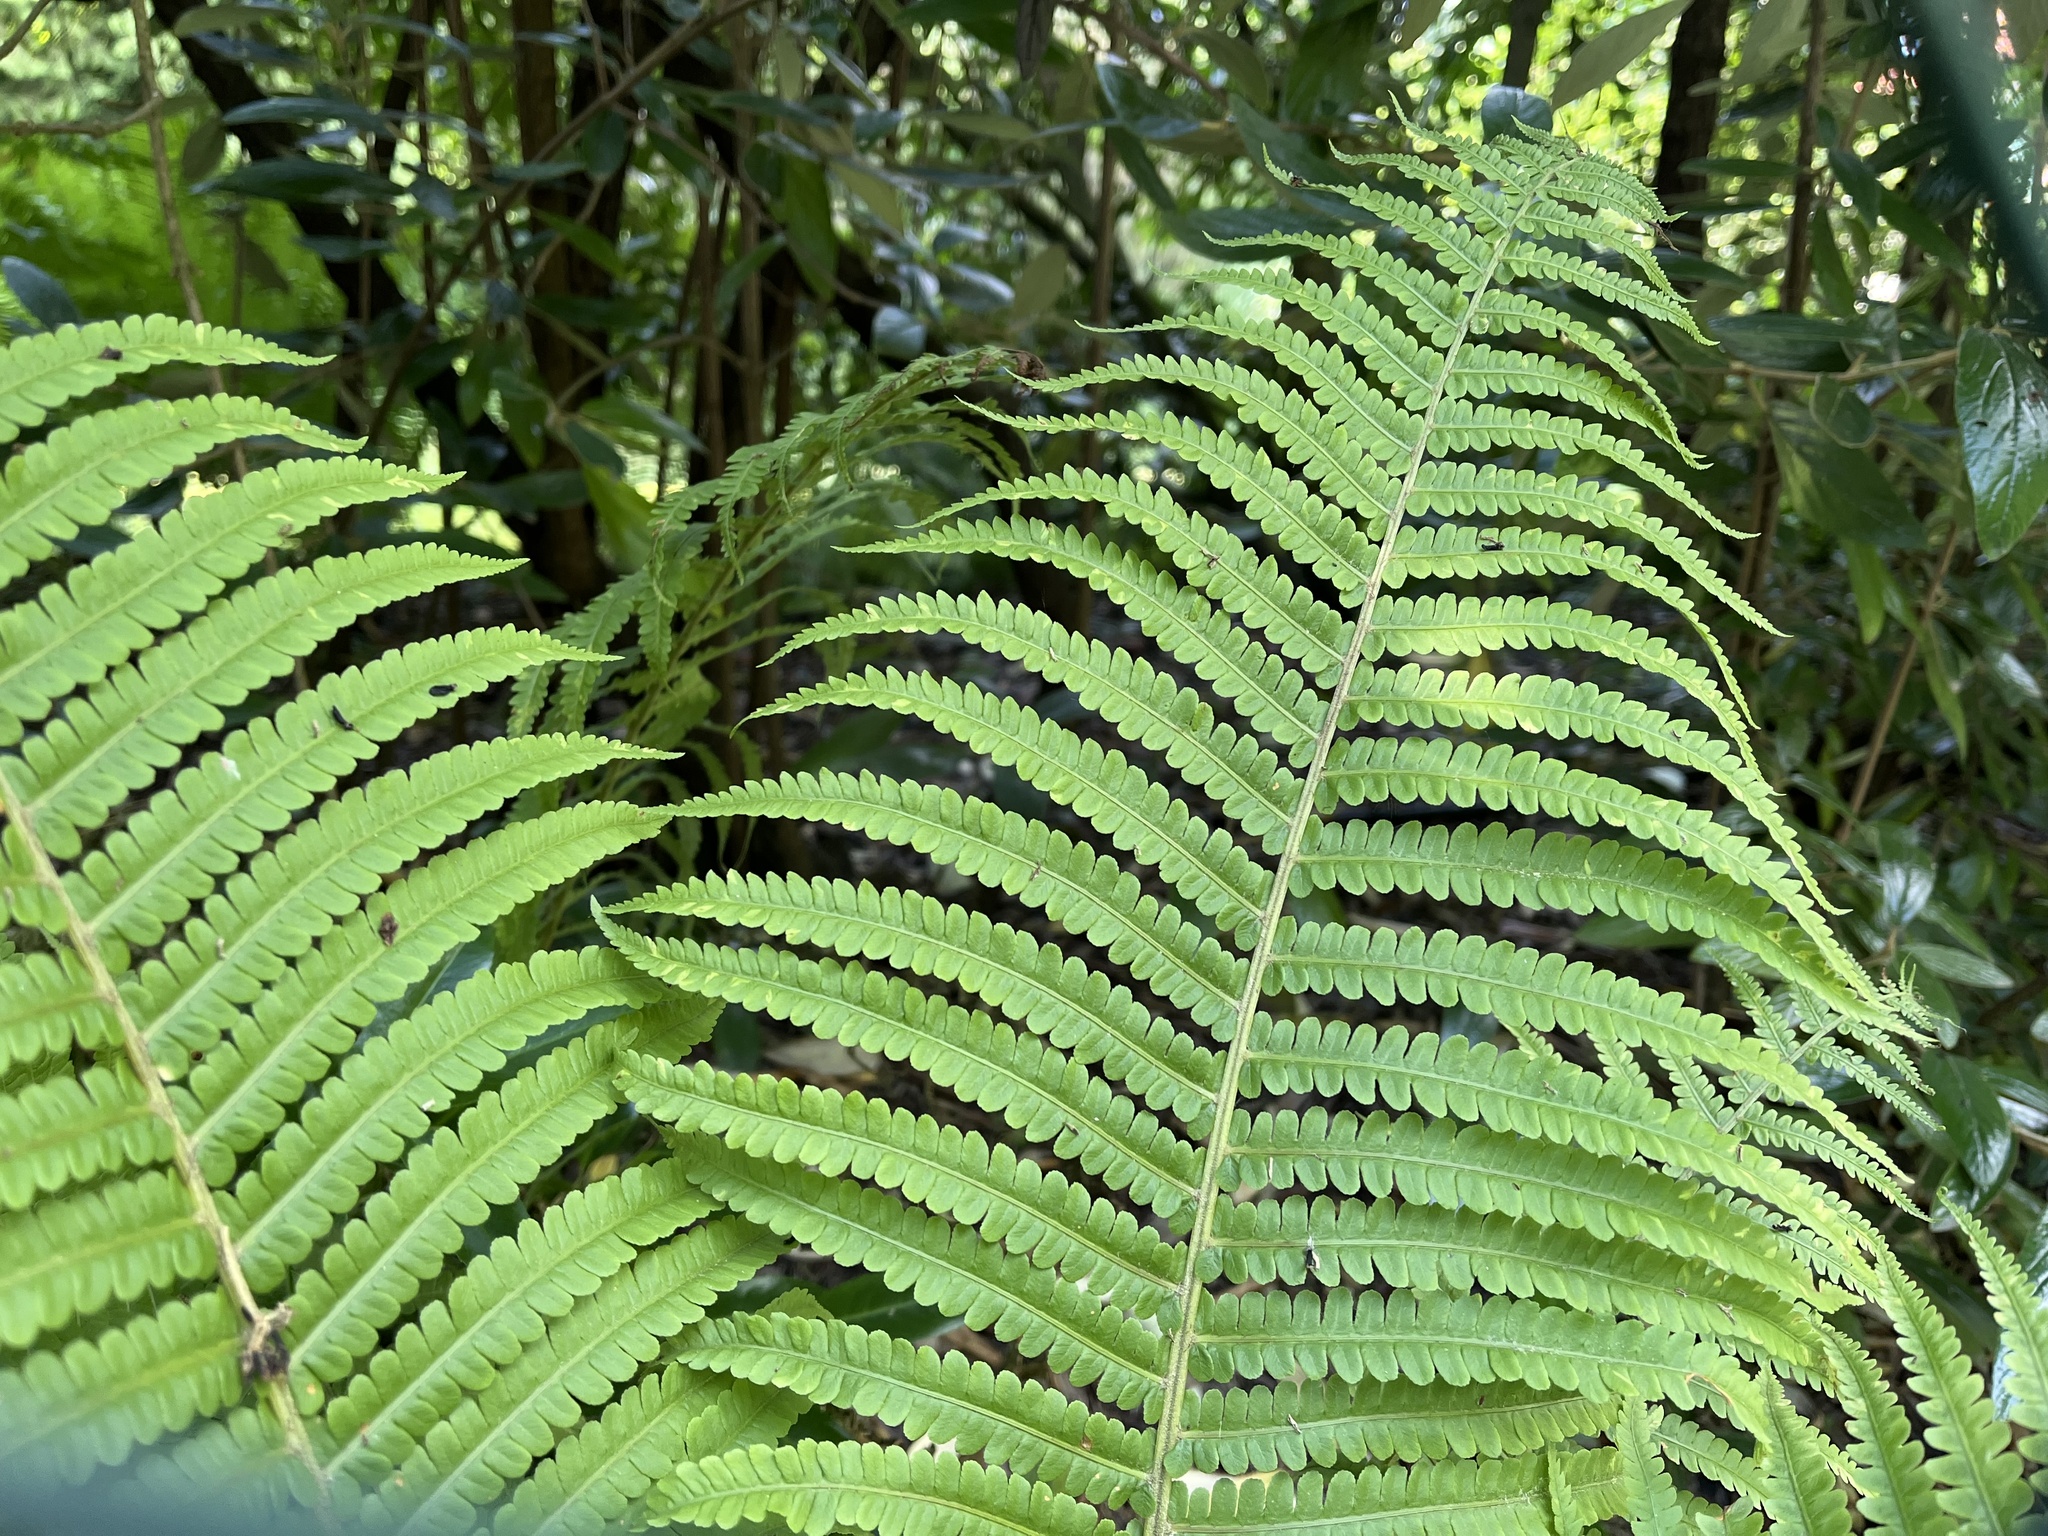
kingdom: Plantae
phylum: Tracheophyta
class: Polypodiopsida
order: Polypodiales
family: Onocleaceae
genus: Matteuccia
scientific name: Matteuccia struthiopteris
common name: Ostrich fern
